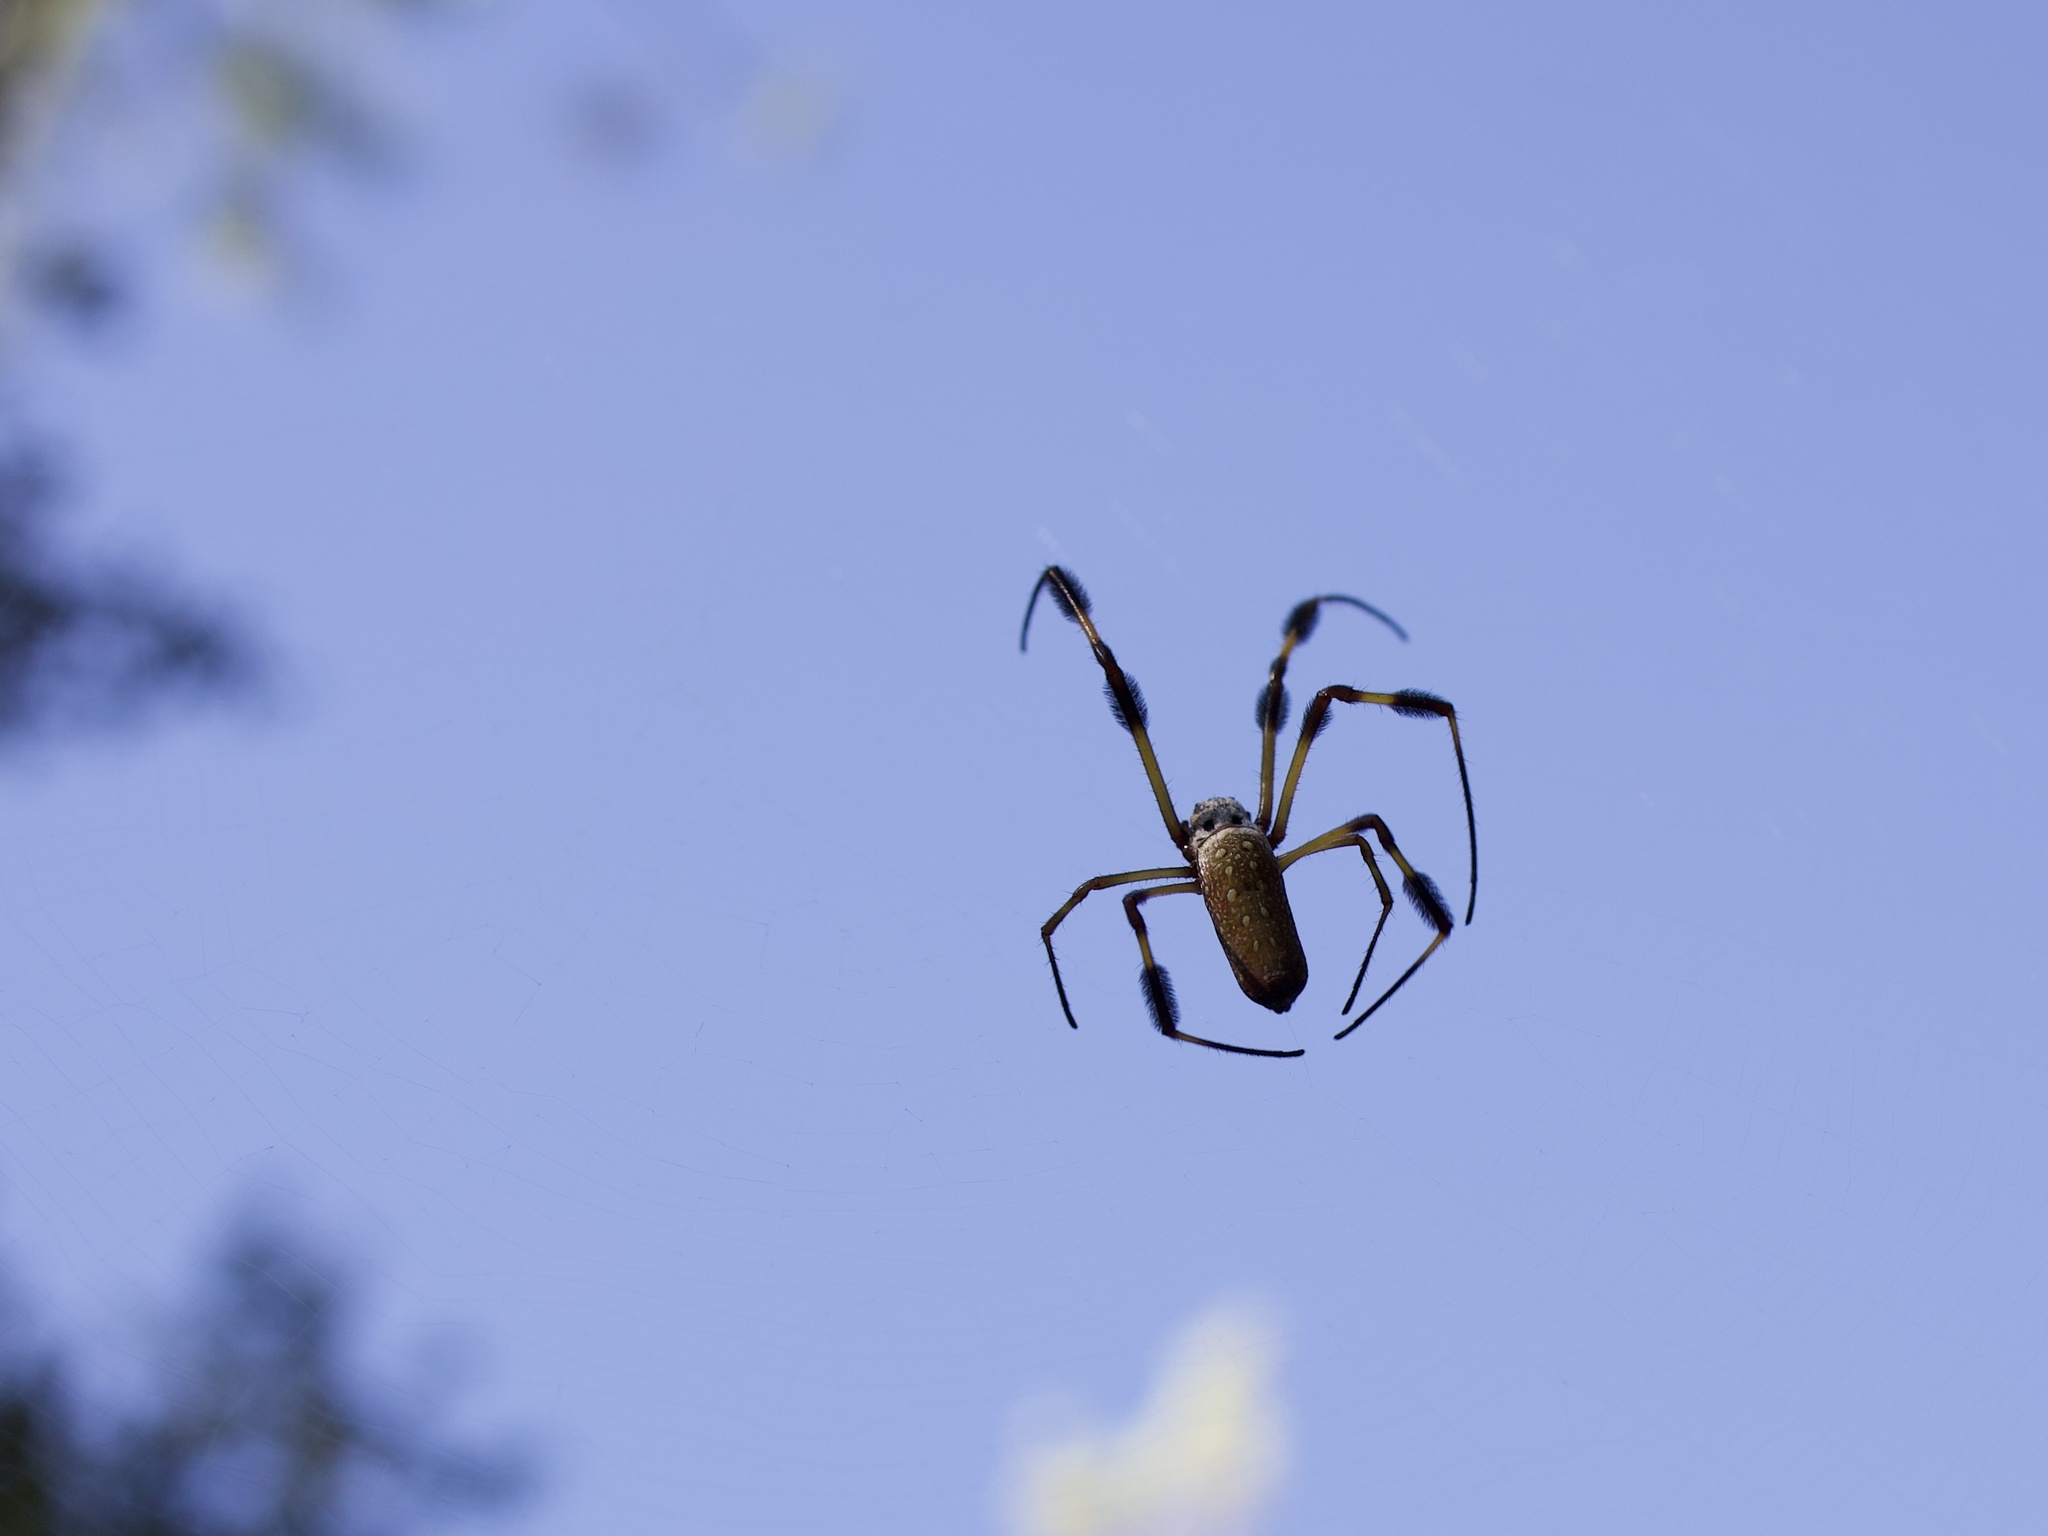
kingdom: Animalia
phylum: Arthropoda
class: Arachnida
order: Araneae
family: Araneidae
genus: Trichonephila
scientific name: Trichonephila clavipes
